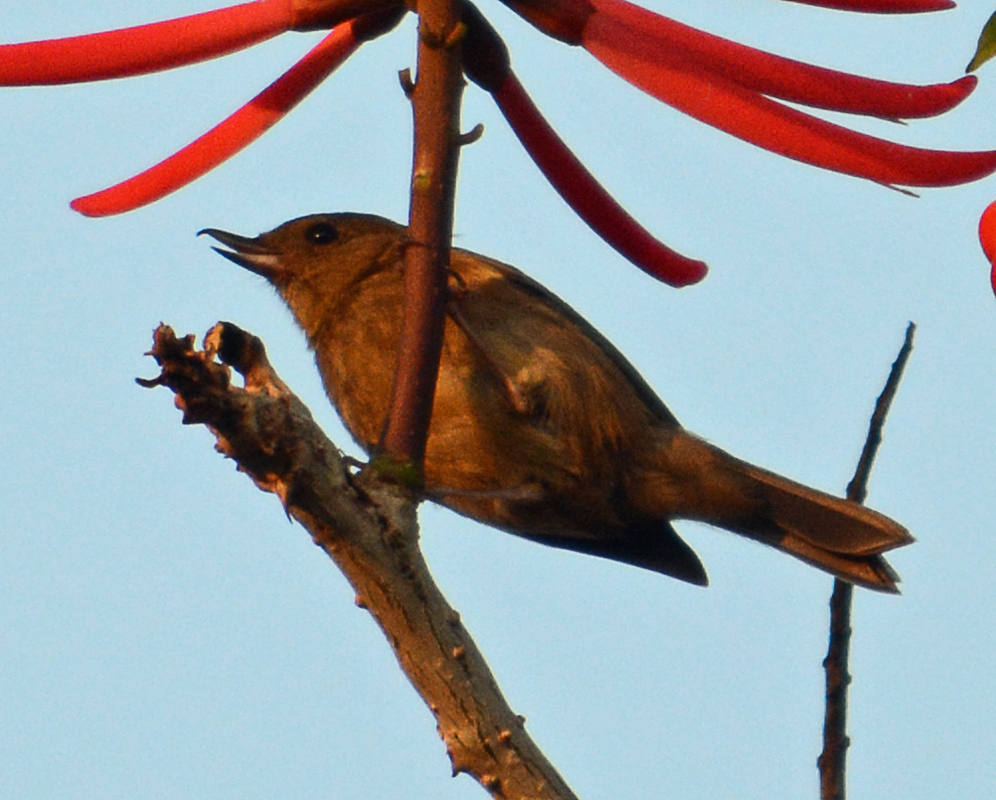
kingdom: Animalia
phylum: Chordata
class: Aves
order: Passeriformes
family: Thraupidae
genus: Diglossa
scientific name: Diglossa baritula
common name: Cinnamon-bellied flowerpiercer
